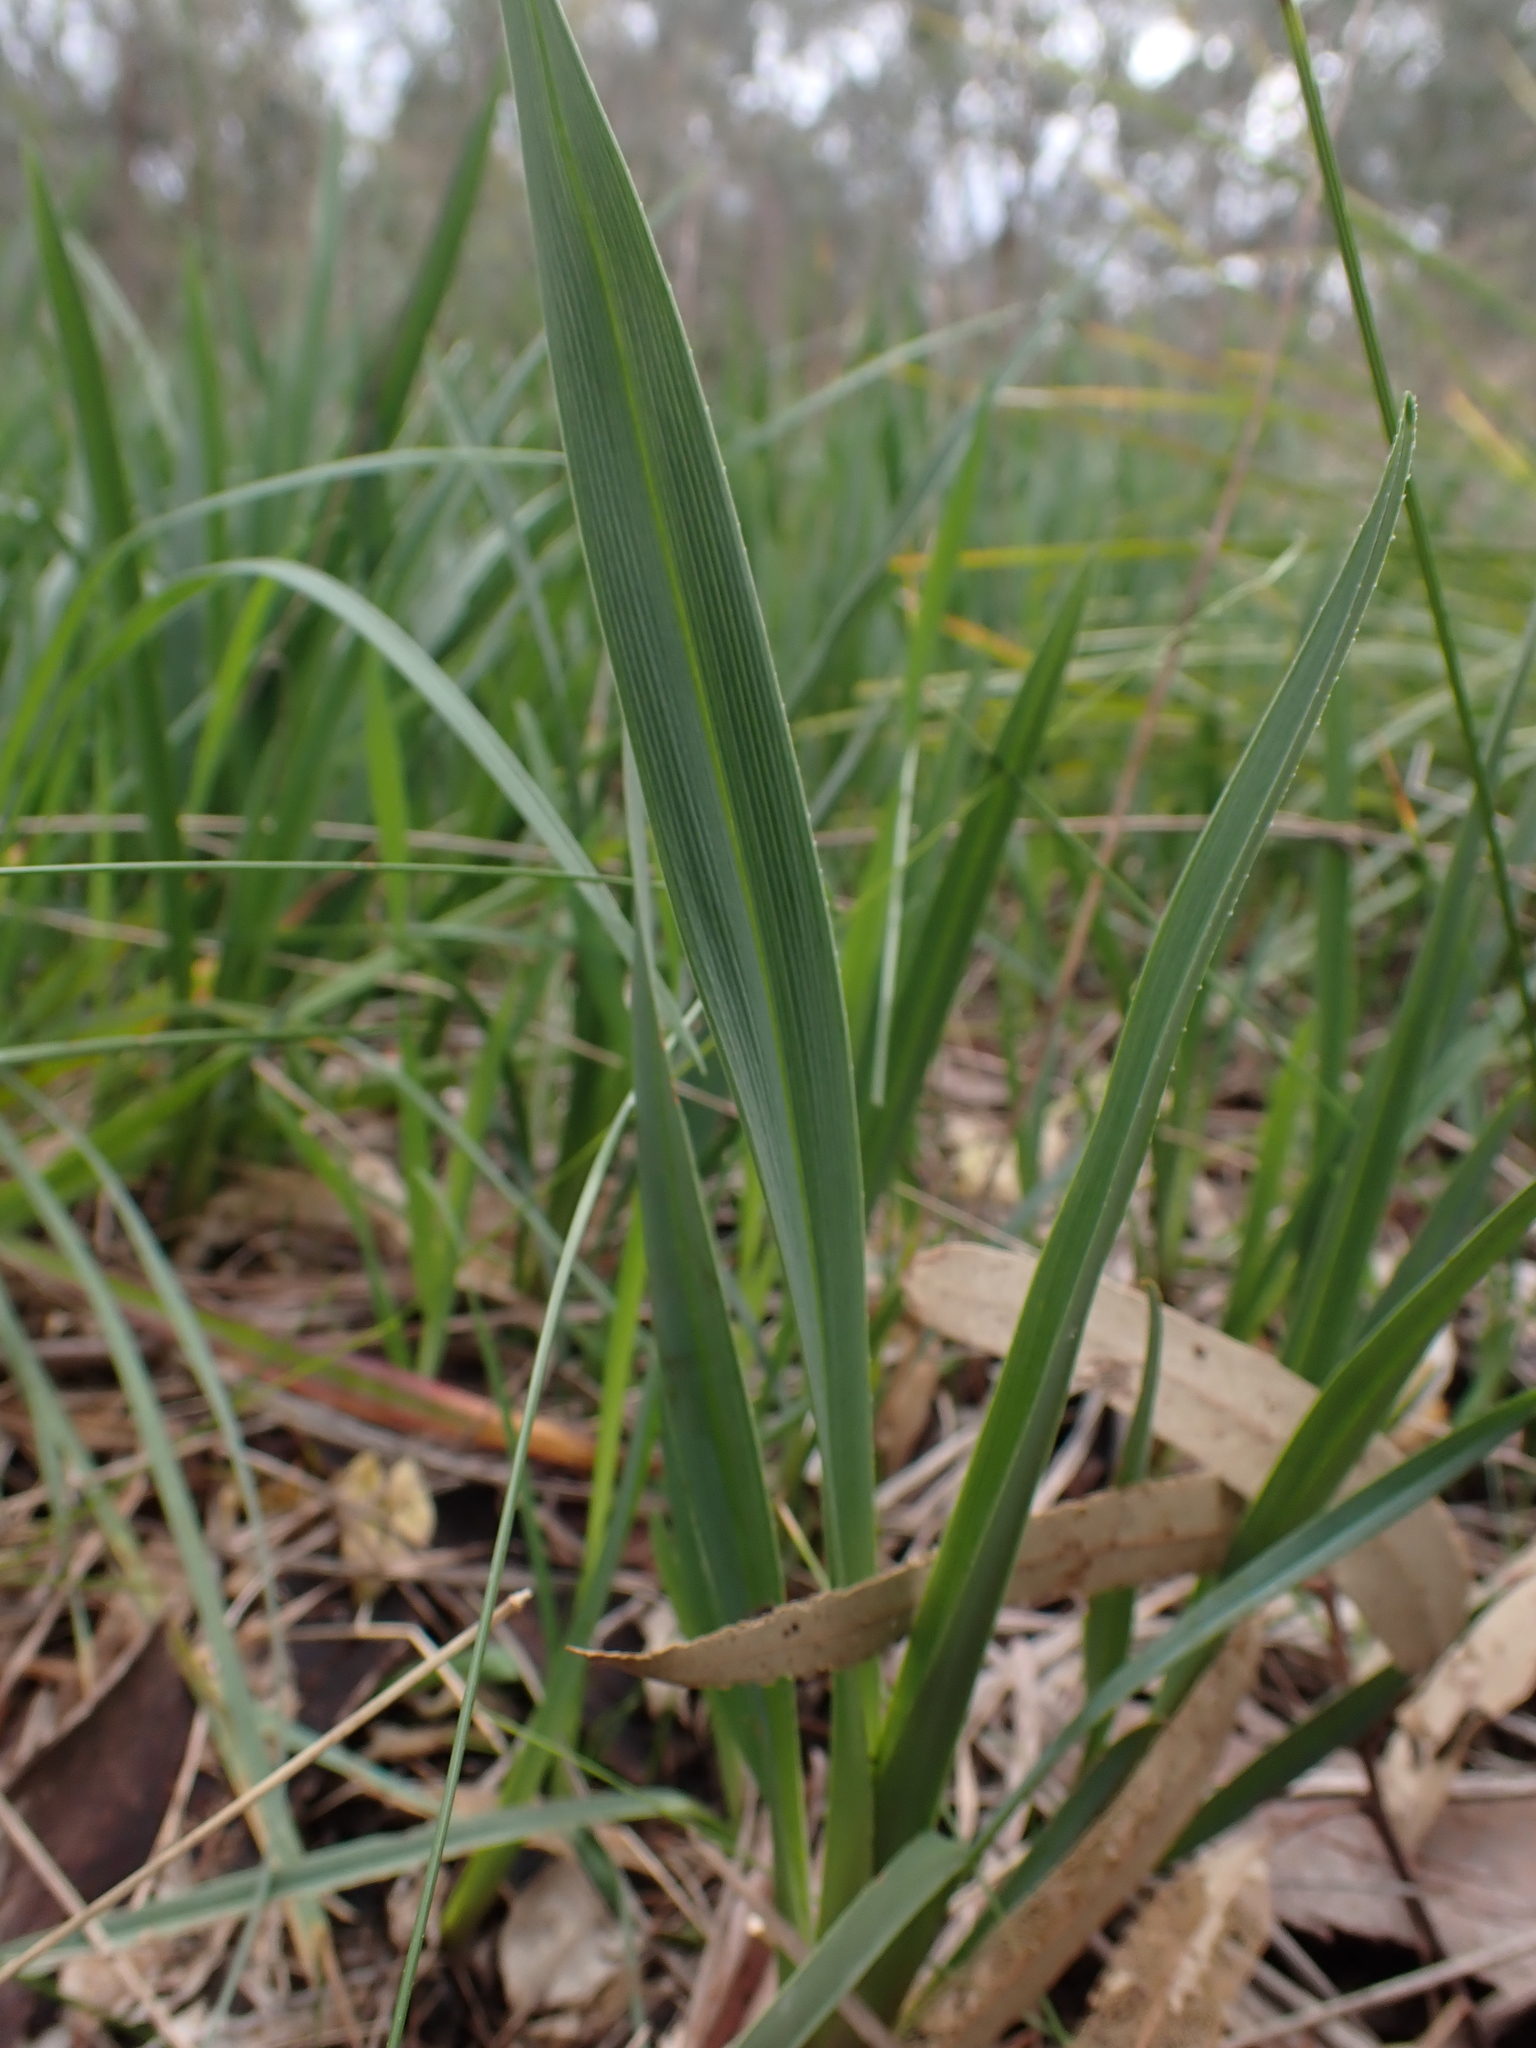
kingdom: Plantae
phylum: Tracheophyta
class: Liliopsida
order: Asparagales
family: Asphodelaceae
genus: Dianella
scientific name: Dianella amoena
